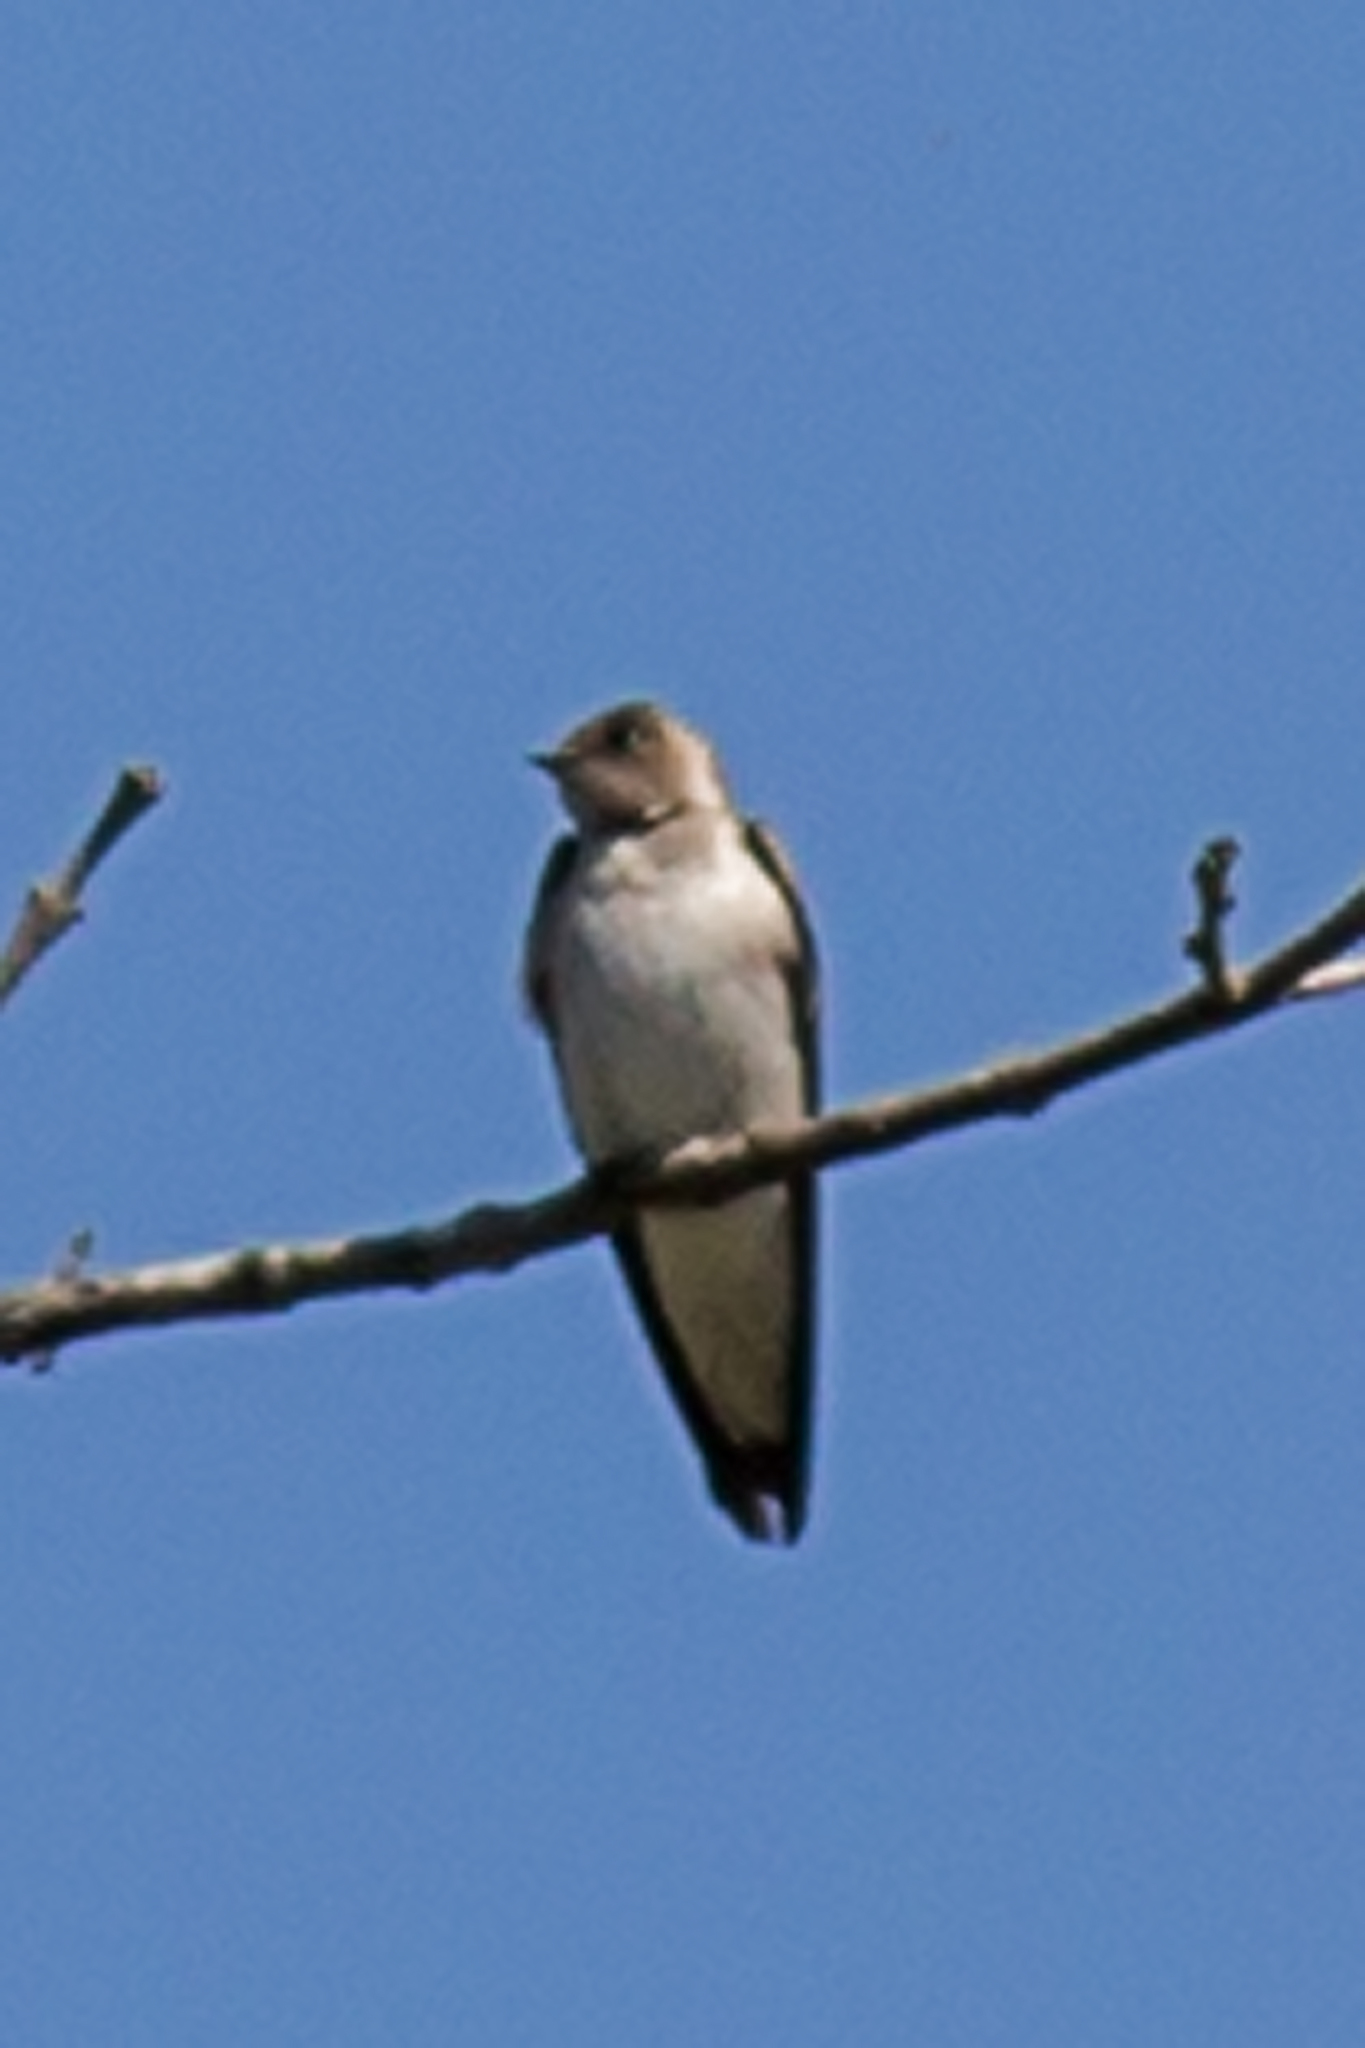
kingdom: Animalia
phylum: Chordata
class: Aves
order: Passeriformes
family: Hirundinidae
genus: Stelgidopteryx
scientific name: Stelgidopteryx serripennis
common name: Northern rough-winged swallow
